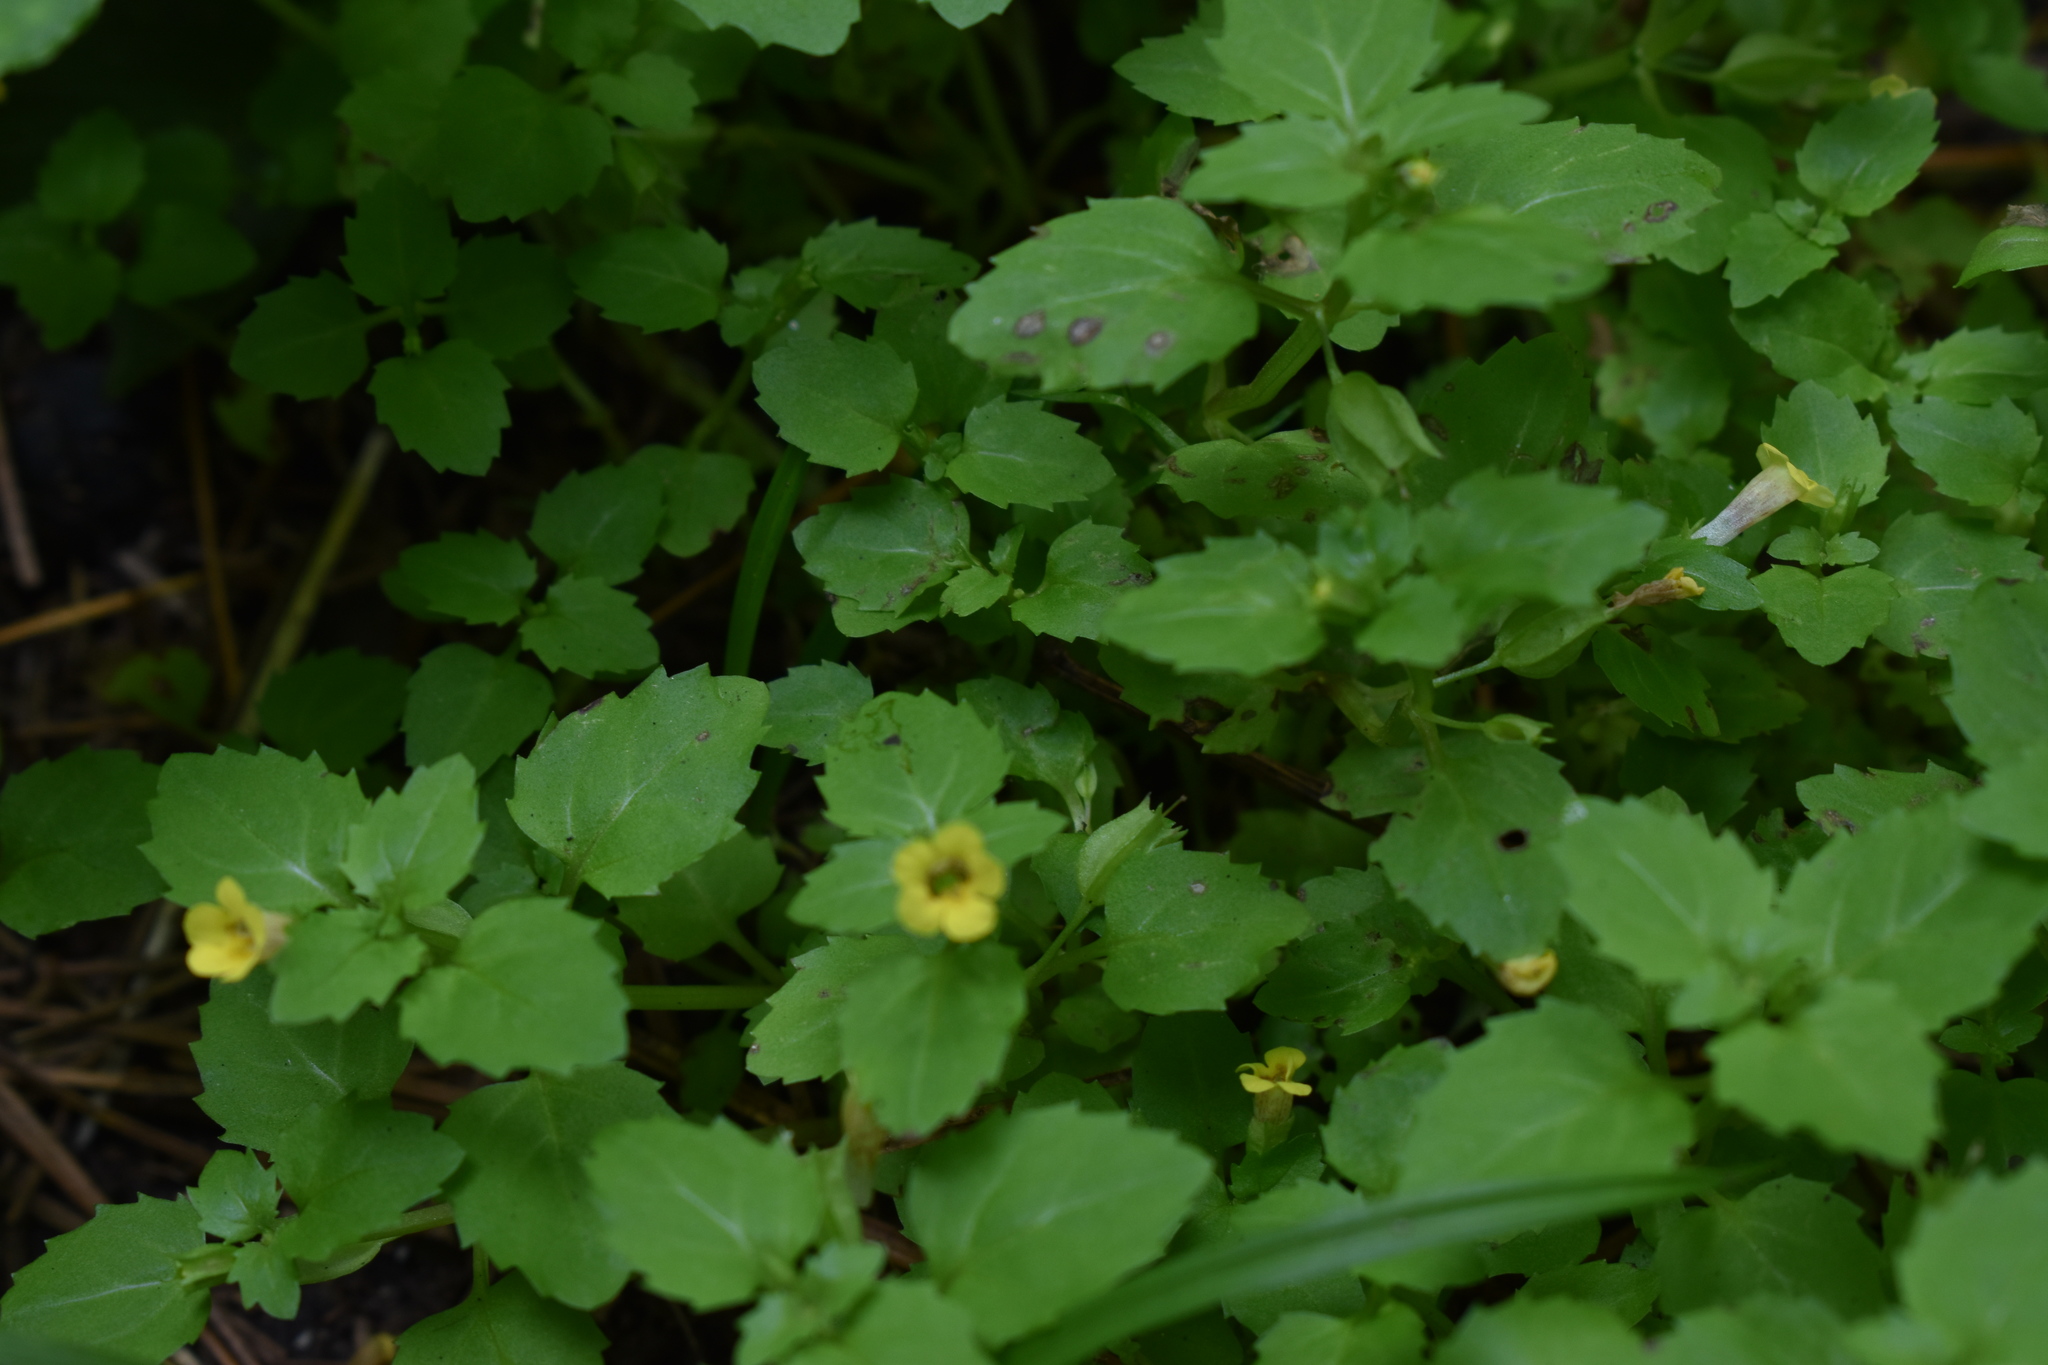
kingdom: Plantae
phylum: Tracheophyta
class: Magnoliopsida
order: Lamiales
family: Phrymaceae
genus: Erythranthe
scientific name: Erythranthe tenella
